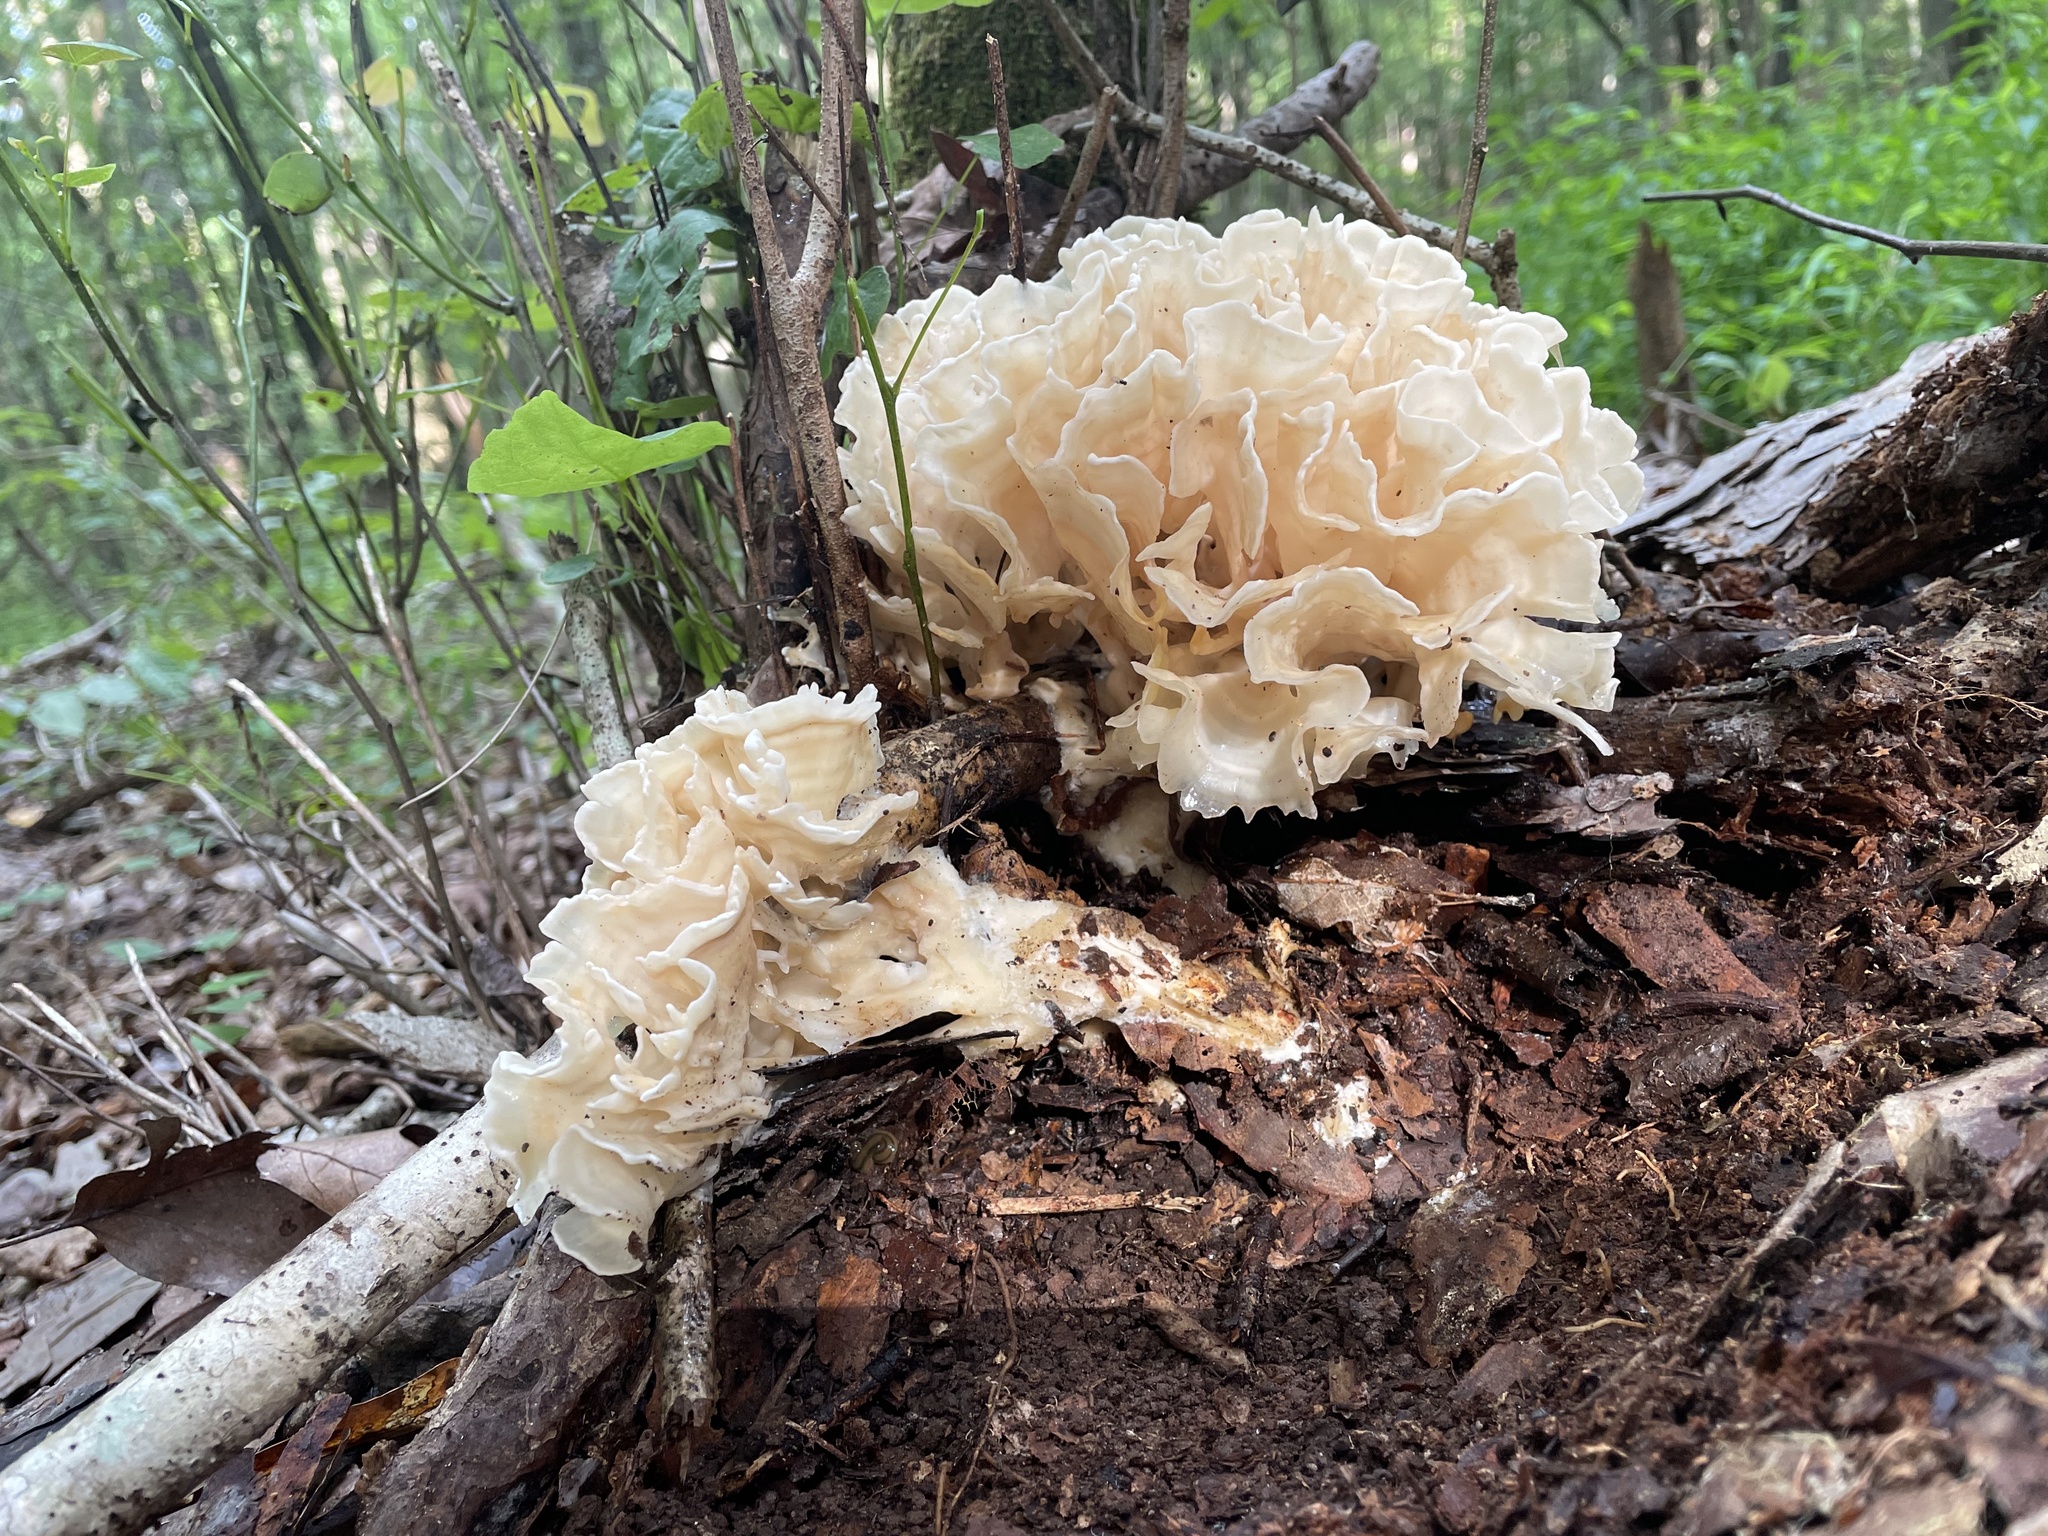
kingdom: Fungi
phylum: Basidiomycota
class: Agaricomycetes
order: Polyporales
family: Sparassidaceae
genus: Sparassis
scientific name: Sparassis spathulata
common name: Eastern cauliflower mushroom
